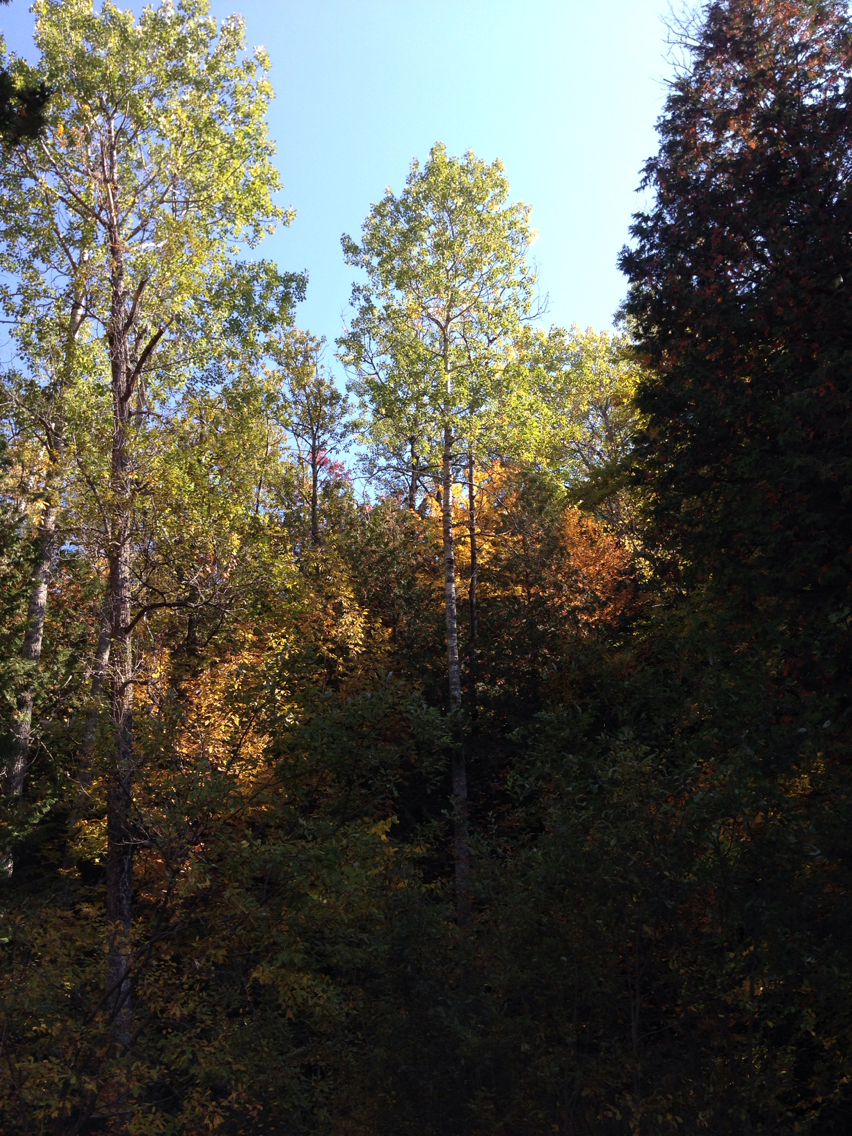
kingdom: Plantae
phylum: Tracheophyta
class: Magnoliopsida
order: Malpighiales
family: Salicaceae
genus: Populus
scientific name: Populus tremuloides
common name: Quaking aspen
